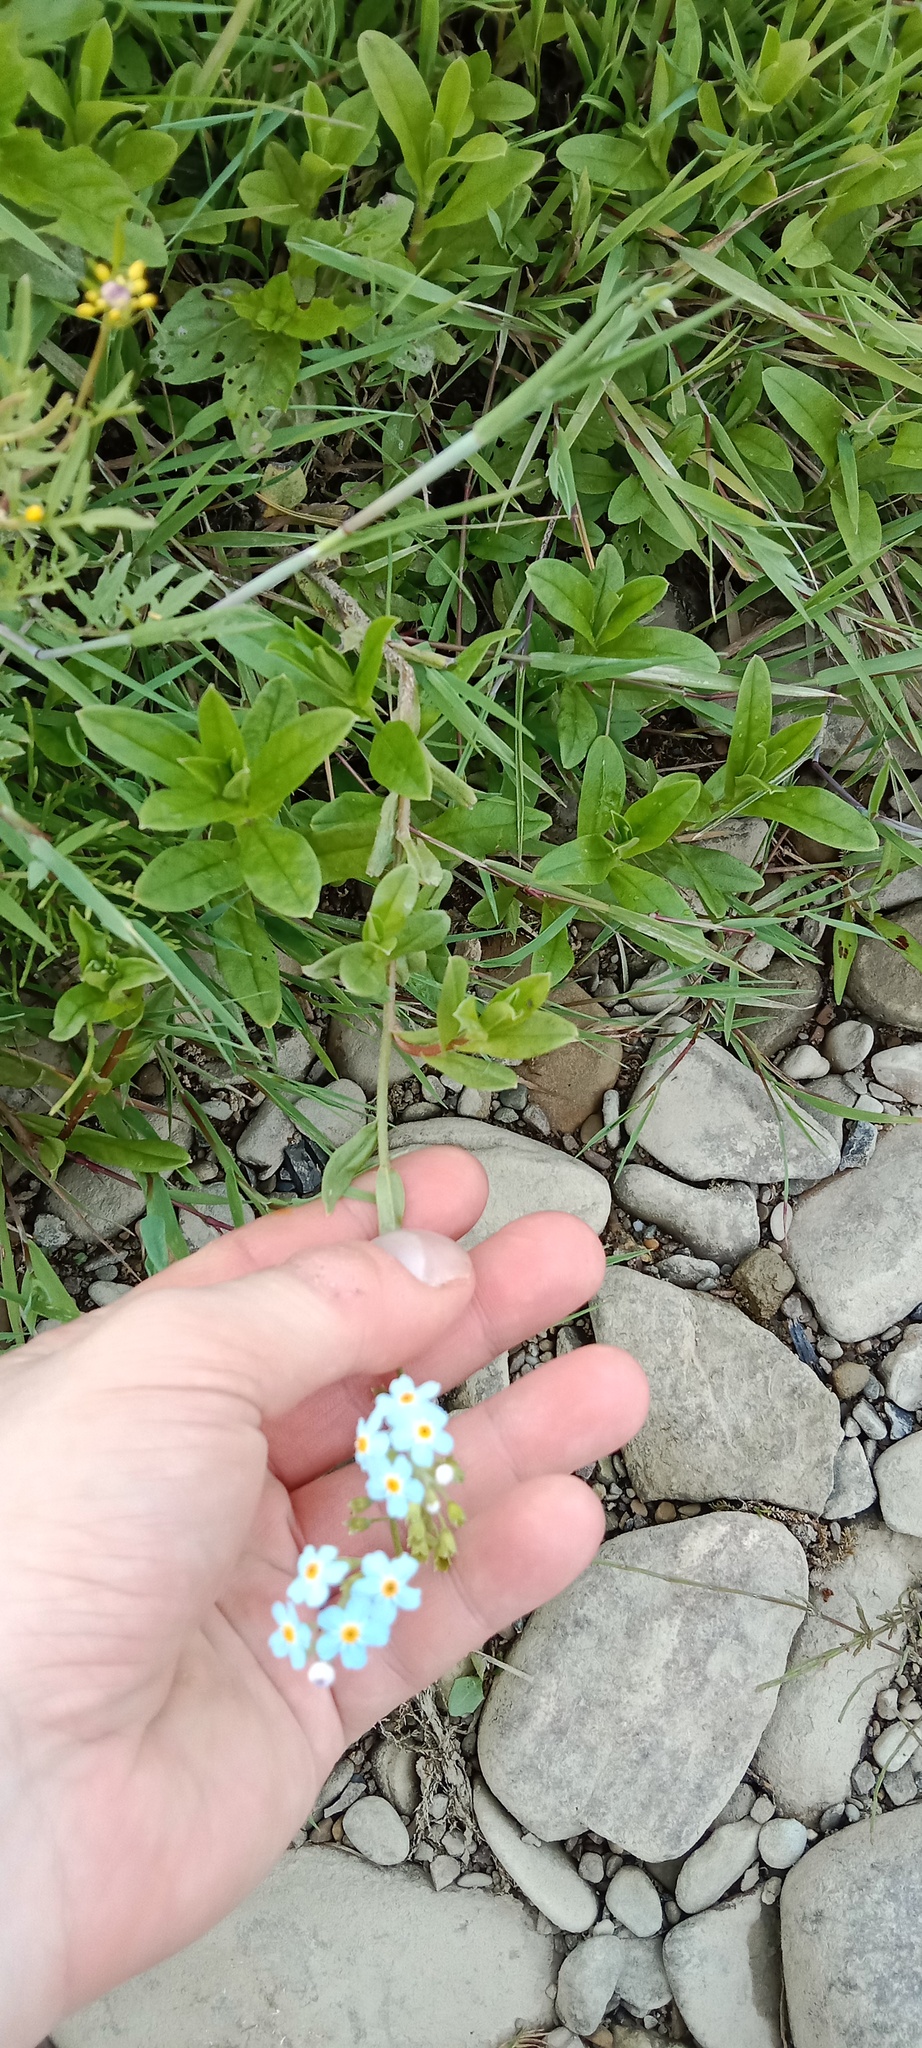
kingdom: Plantae
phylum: Tracheophyta
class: Magnoliopsida
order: Boraginales
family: Boraginaceae
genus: Myosotis
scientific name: Myosotis scorpioides
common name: Water forget-me-not
